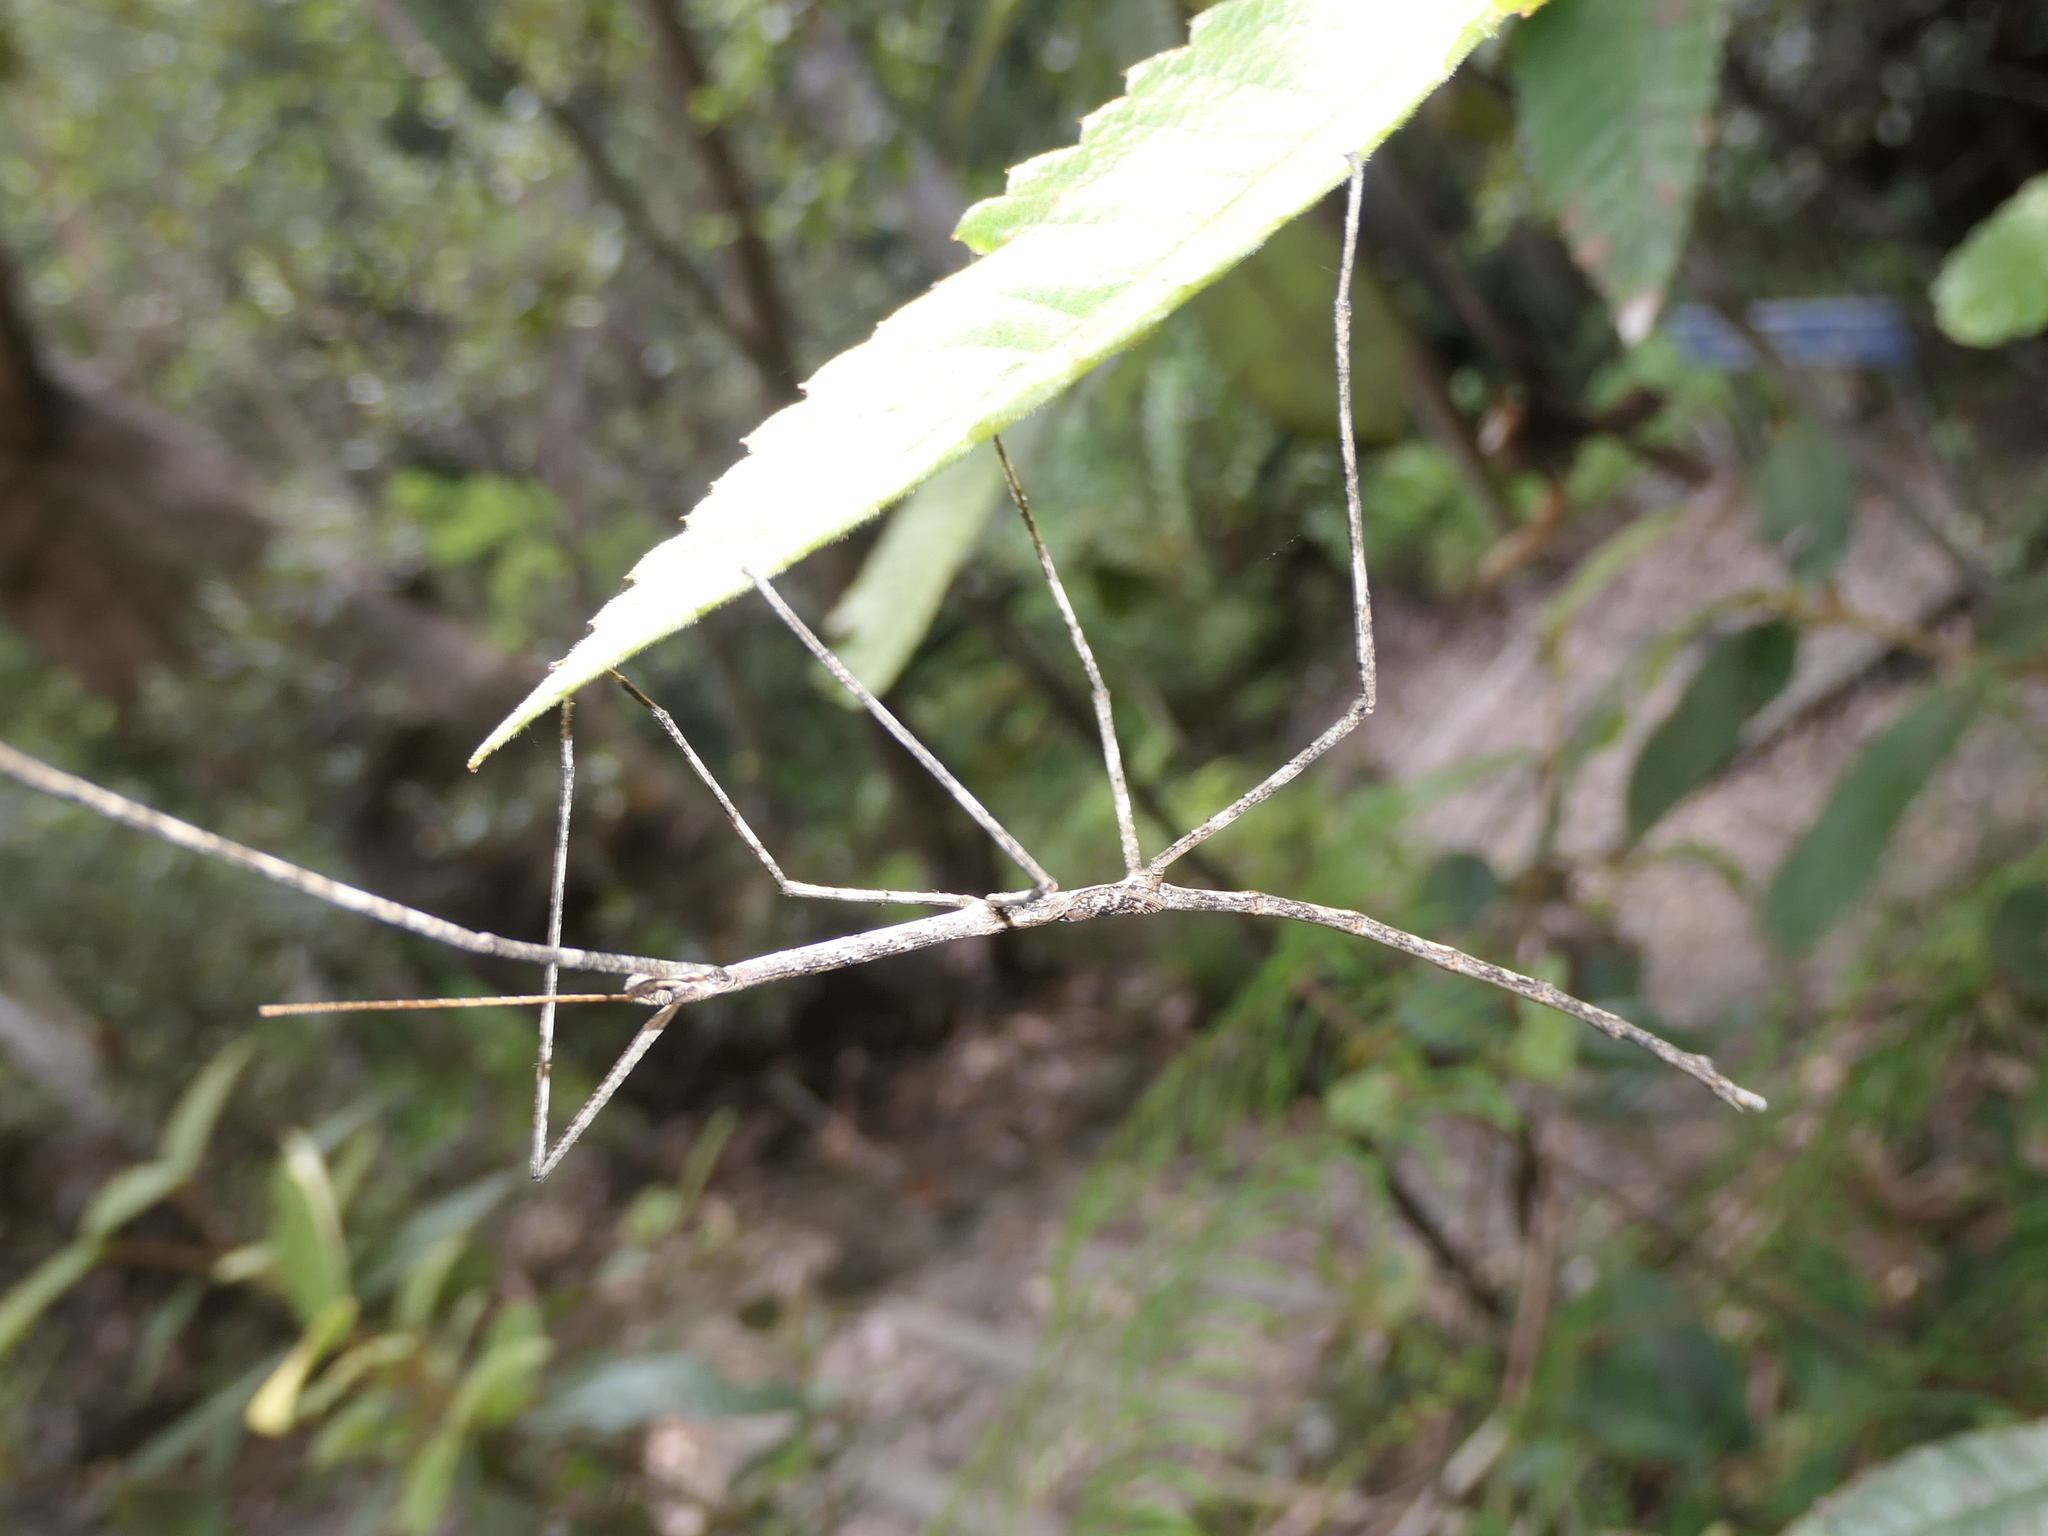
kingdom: Animalia
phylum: Arthropoda
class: Insecta
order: Phasmida
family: Phasmatidae
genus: Ctenomorpha
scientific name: Ctenomorpha marginipennis
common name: Margined-winged stick-insect
